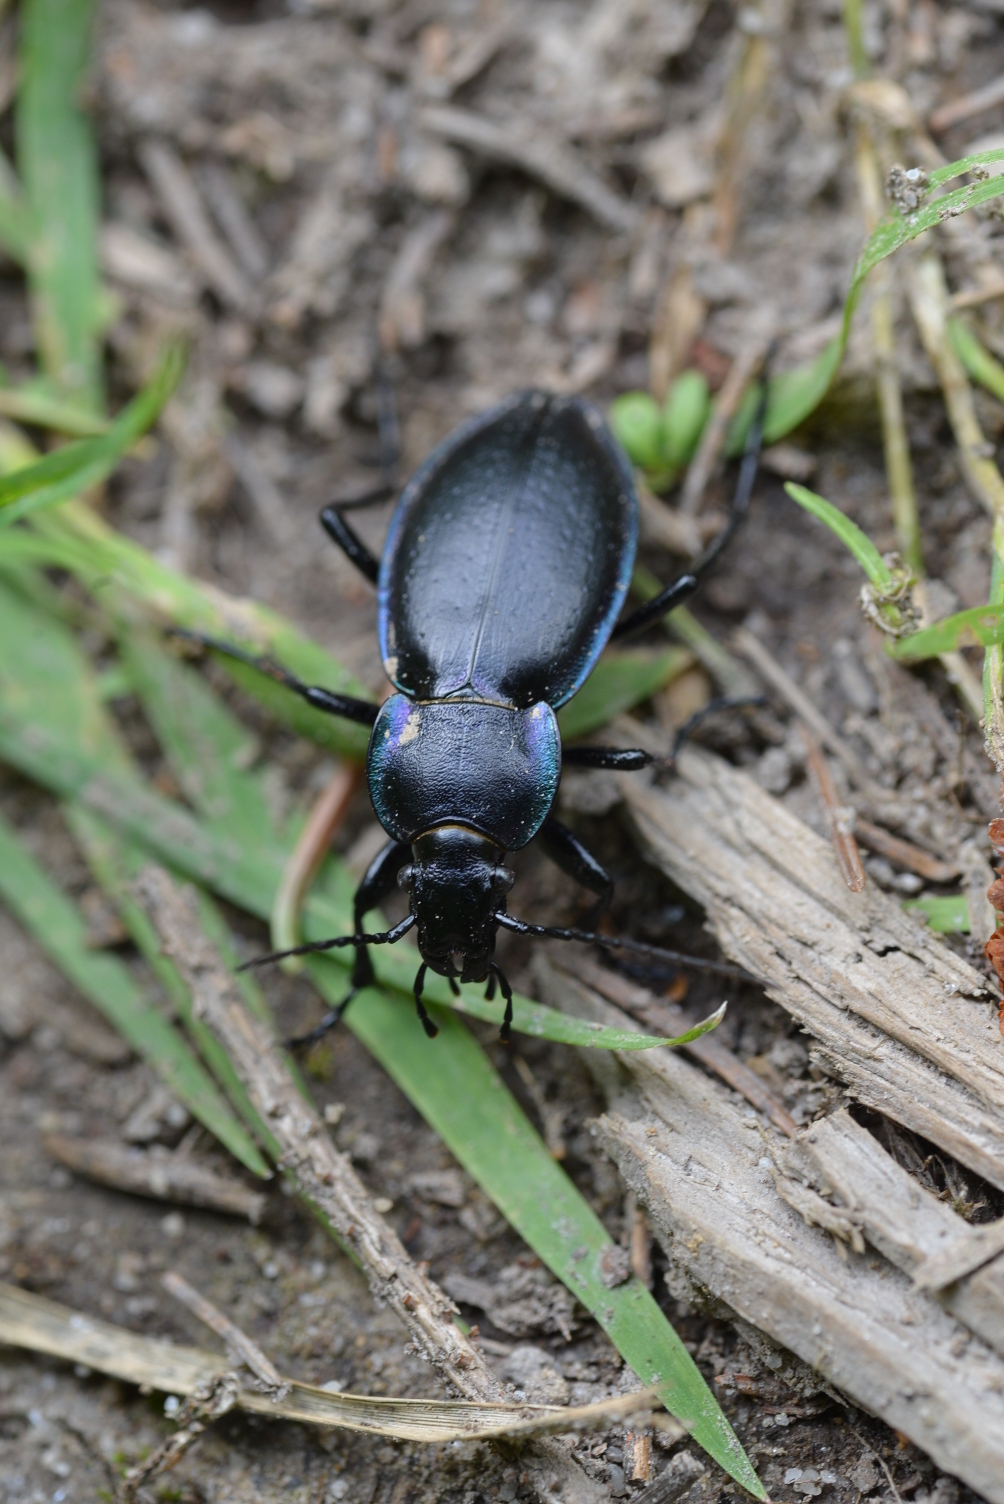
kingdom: Animalia
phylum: Arthropoda
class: Insecta
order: Coleoptera
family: Carabidae
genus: Carabus
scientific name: Carabus violaceus
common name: Violet ground beetle
